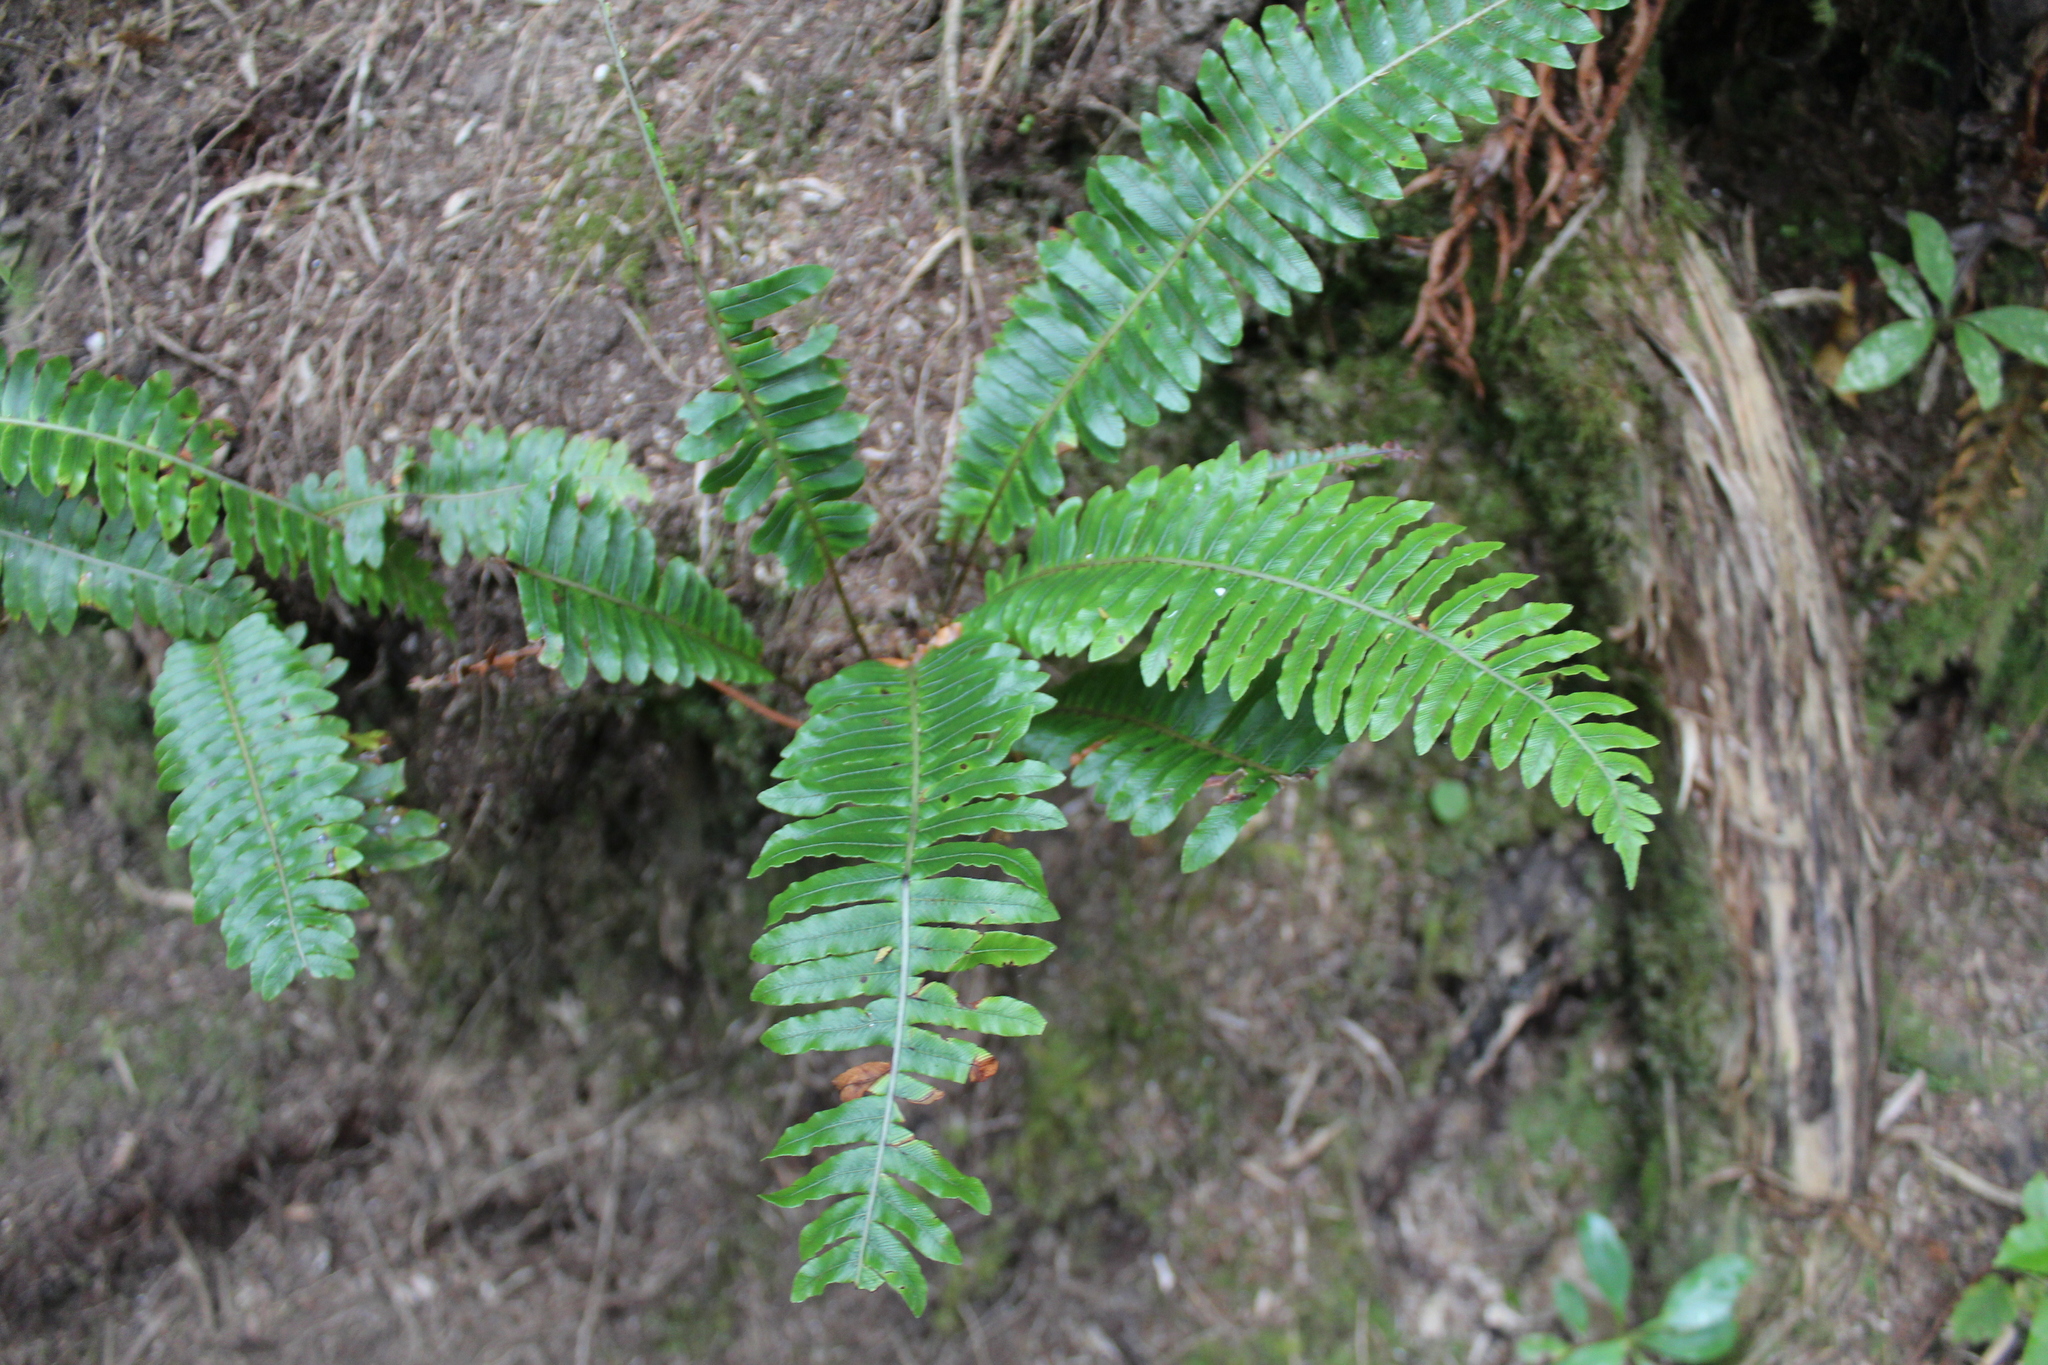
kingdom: Plantae
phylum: Tracheophyta
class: Polypodiopsida
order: Polypodiales
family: Blechnaceae
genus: Lomaria
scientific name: Lomaria discolor
